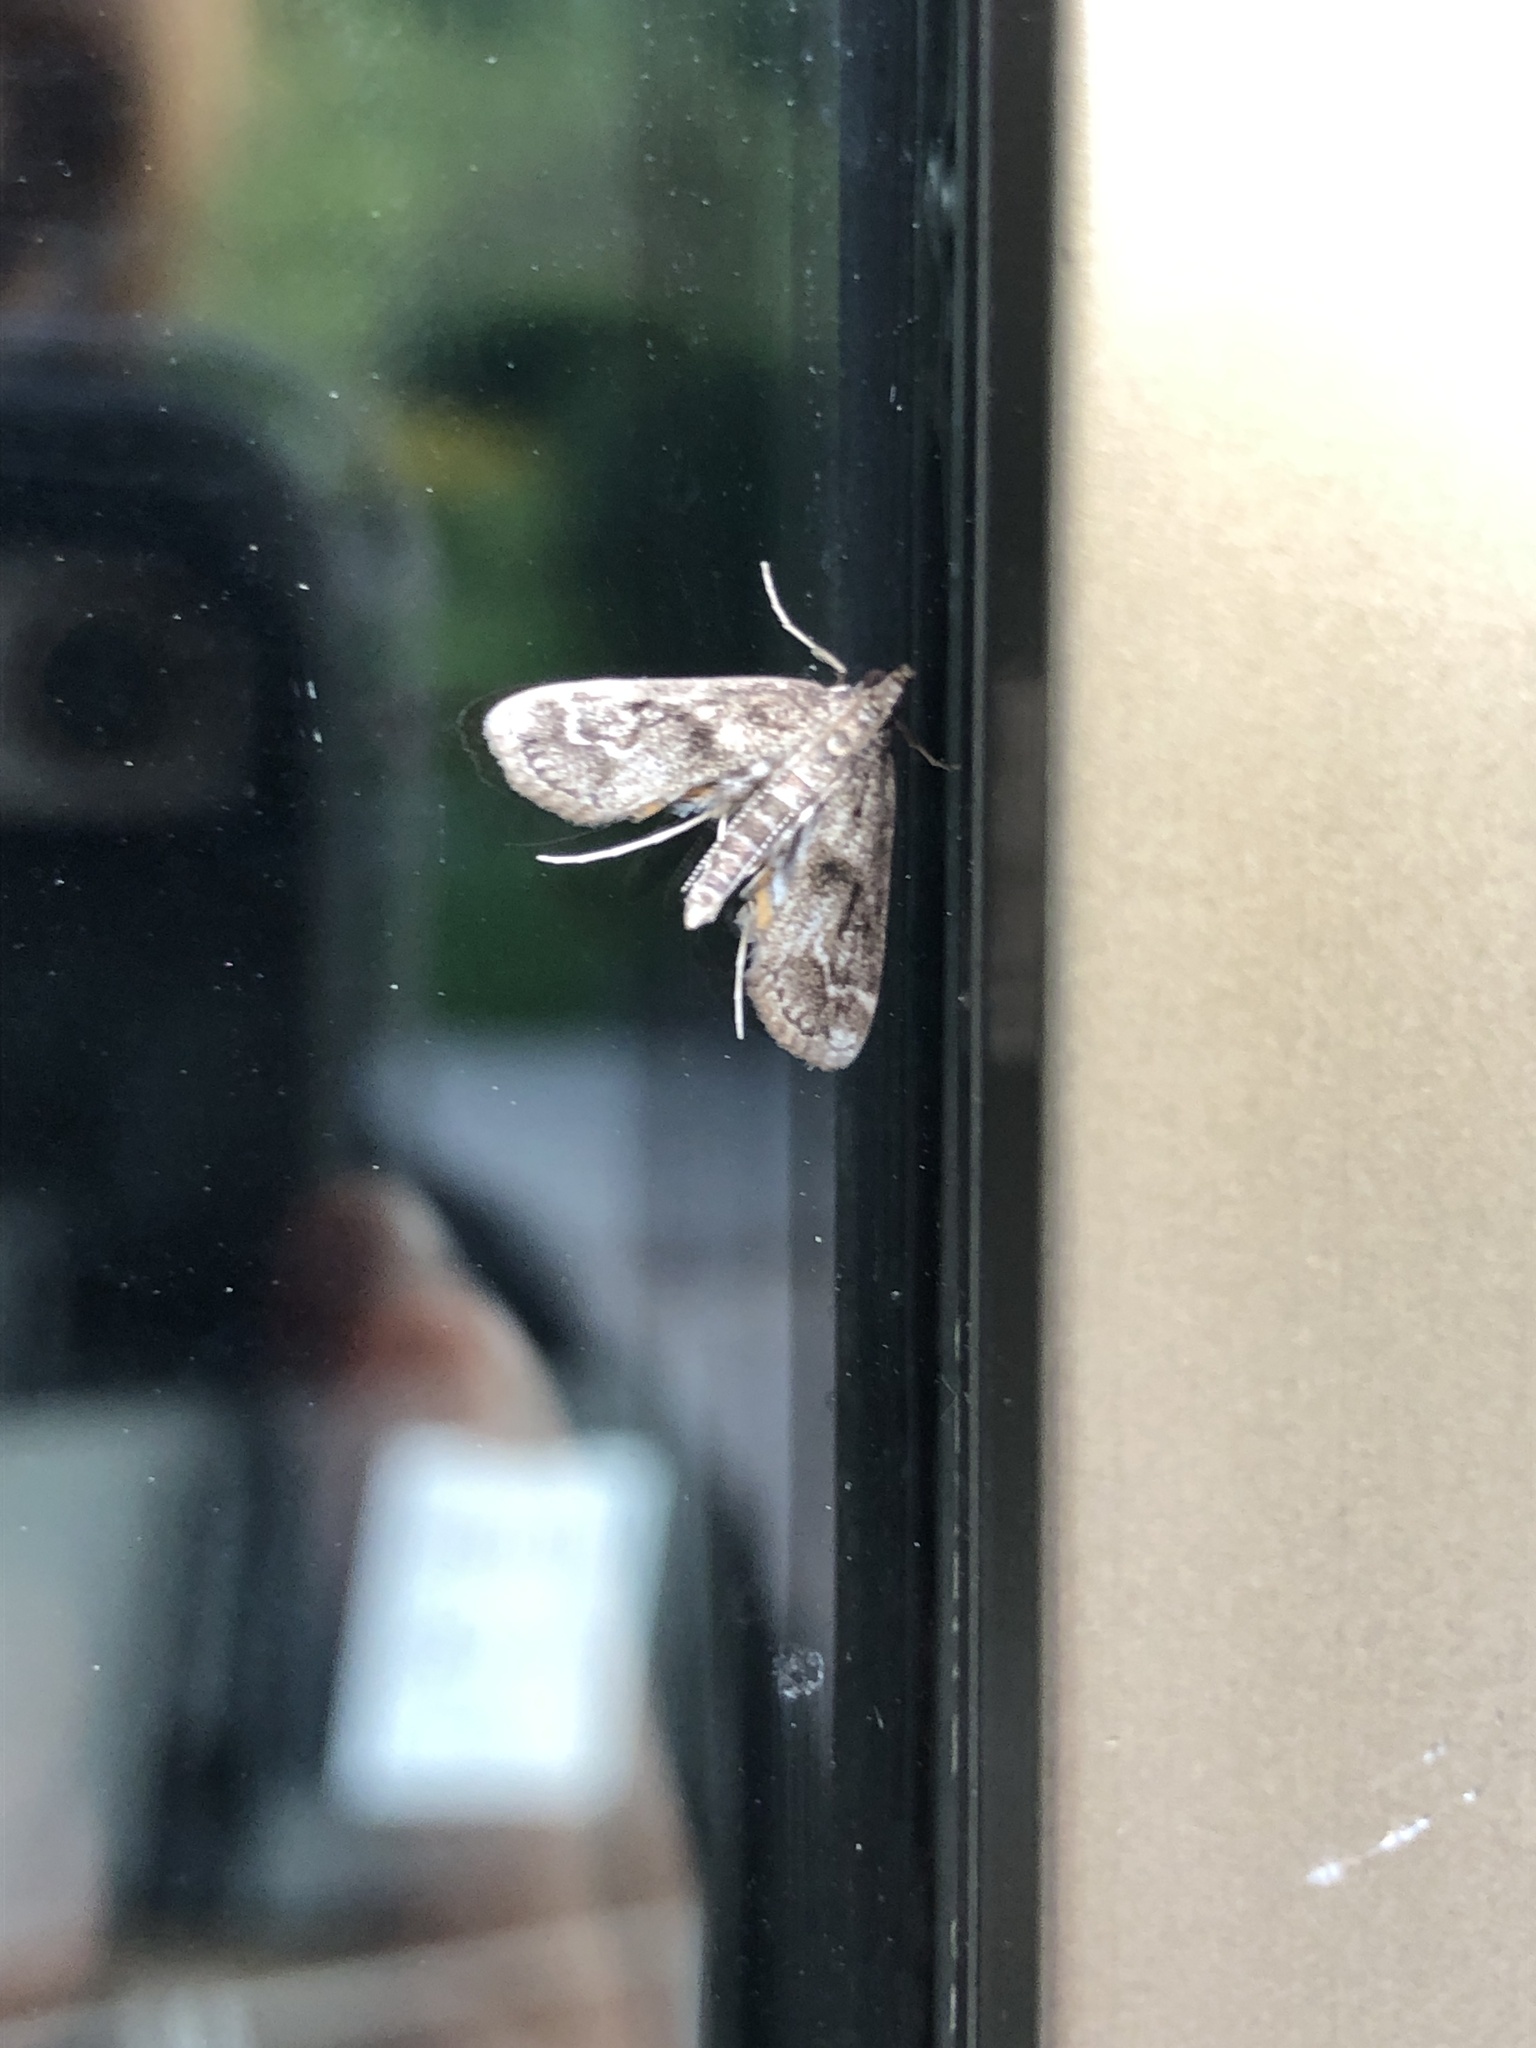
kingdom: Animalia
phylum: Arthropoda
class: Insecta
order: Lepidoptera
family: Crambidae
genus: Parapoynx
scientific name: Parapoynx obscuralis
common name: American china-mark
